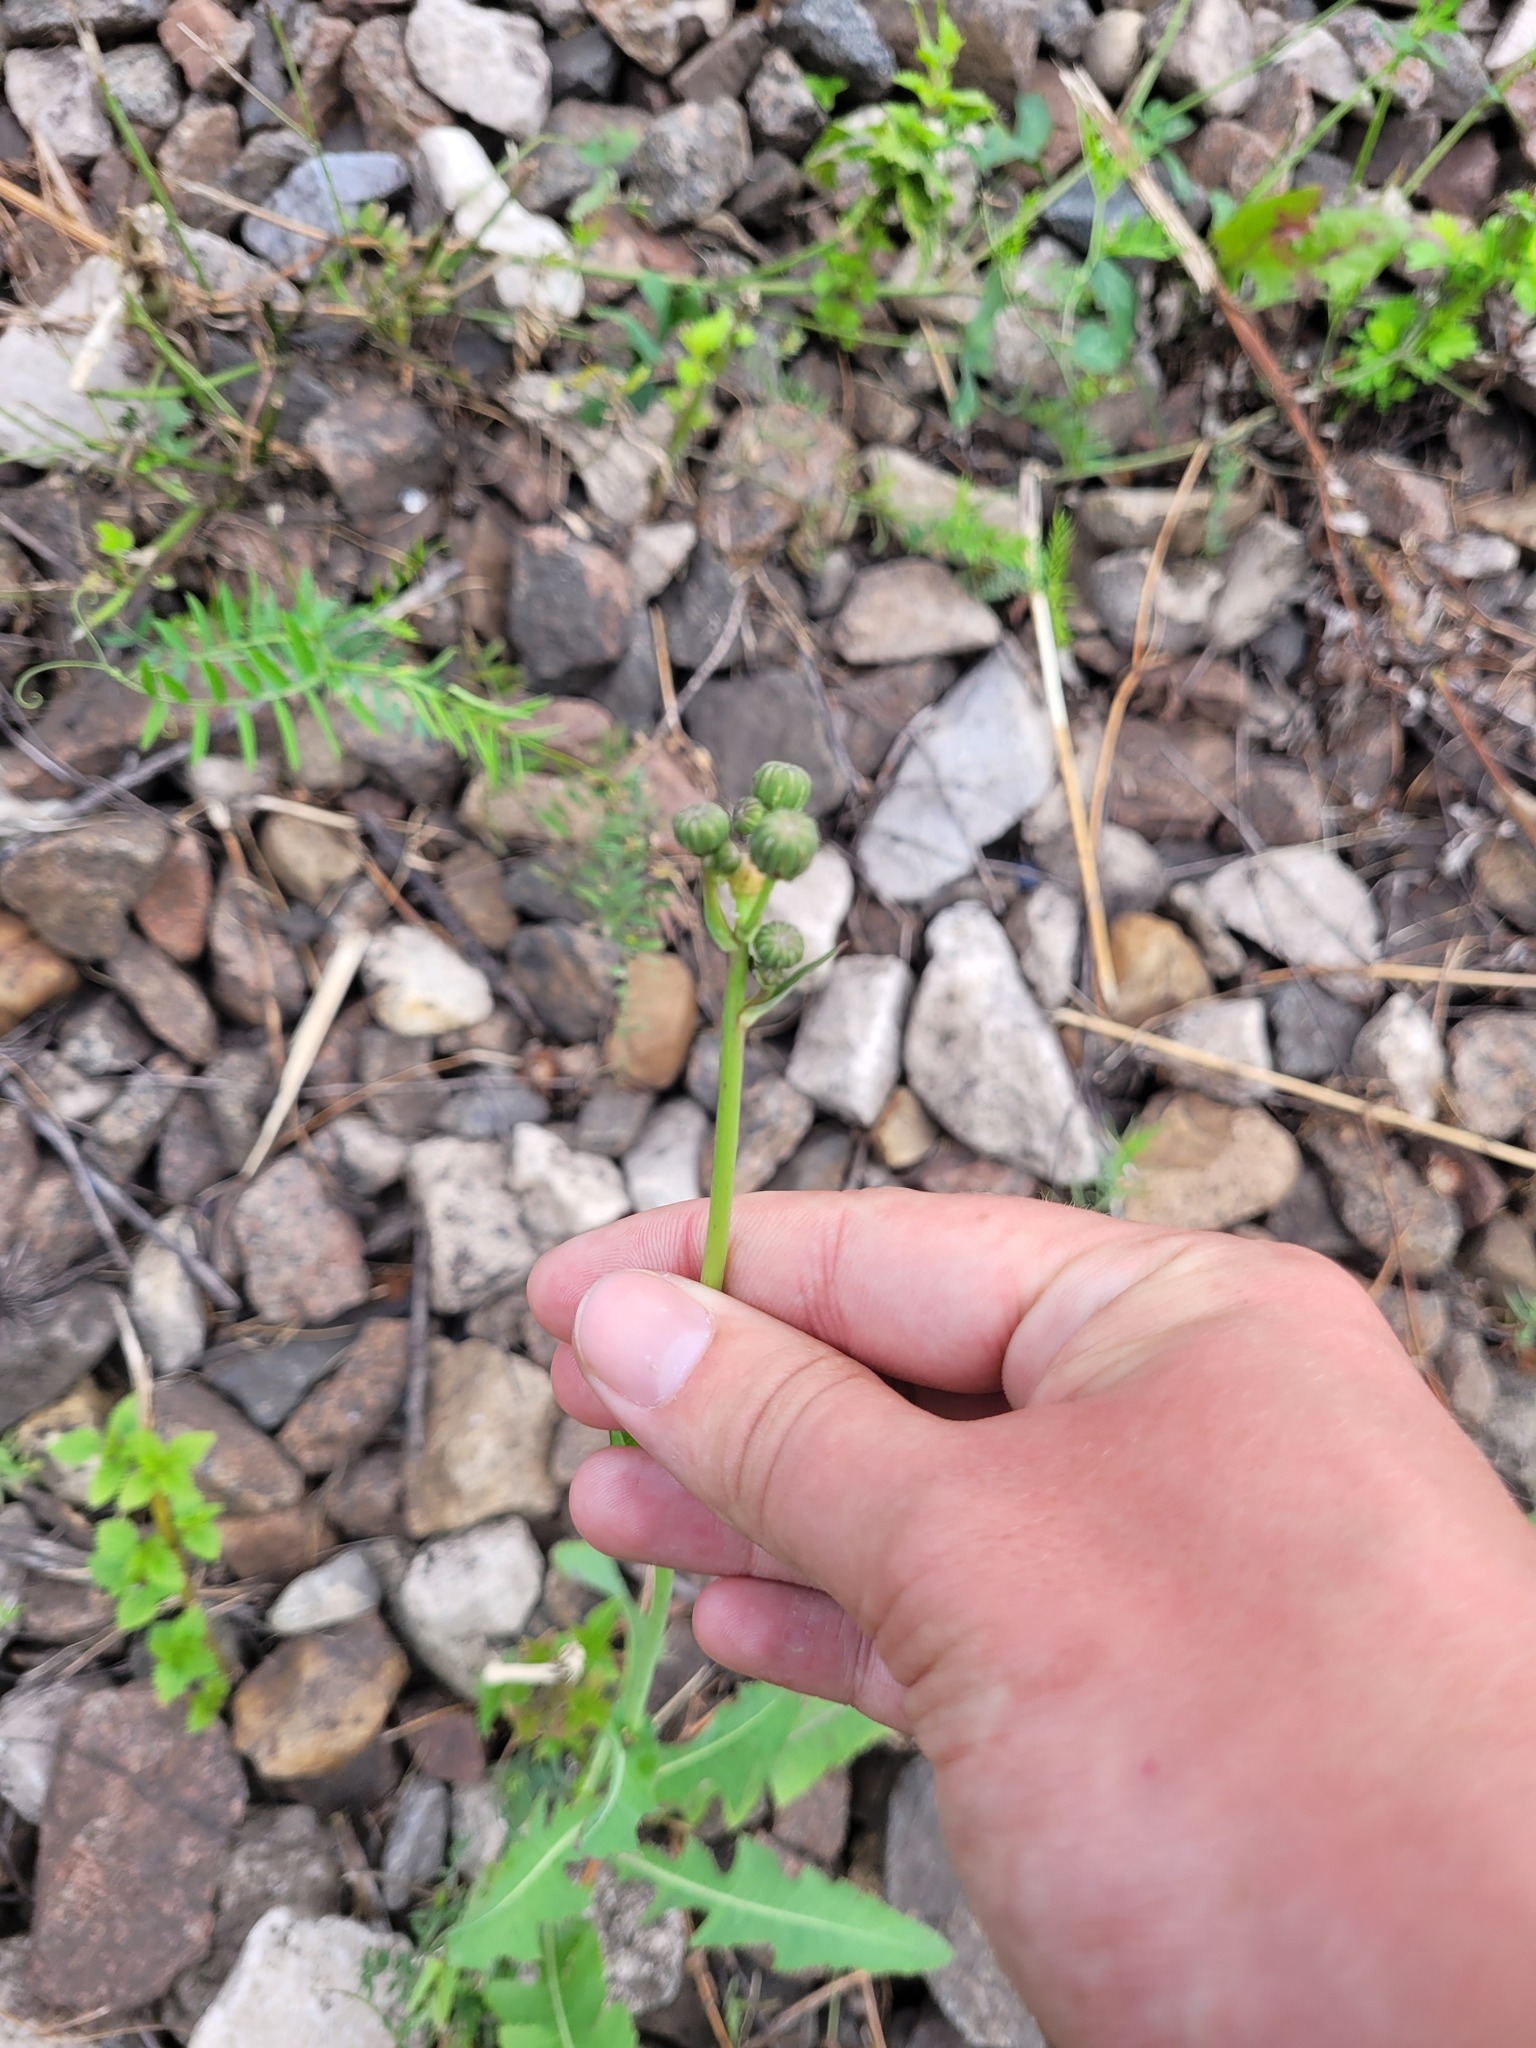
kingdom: Plantae
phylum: Tracheophyta
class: Magnoliopsida
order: Asterales
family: Asteraceae
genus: Sonchus
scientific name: Sonchus arvensis
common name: Perennial sow-thistle
